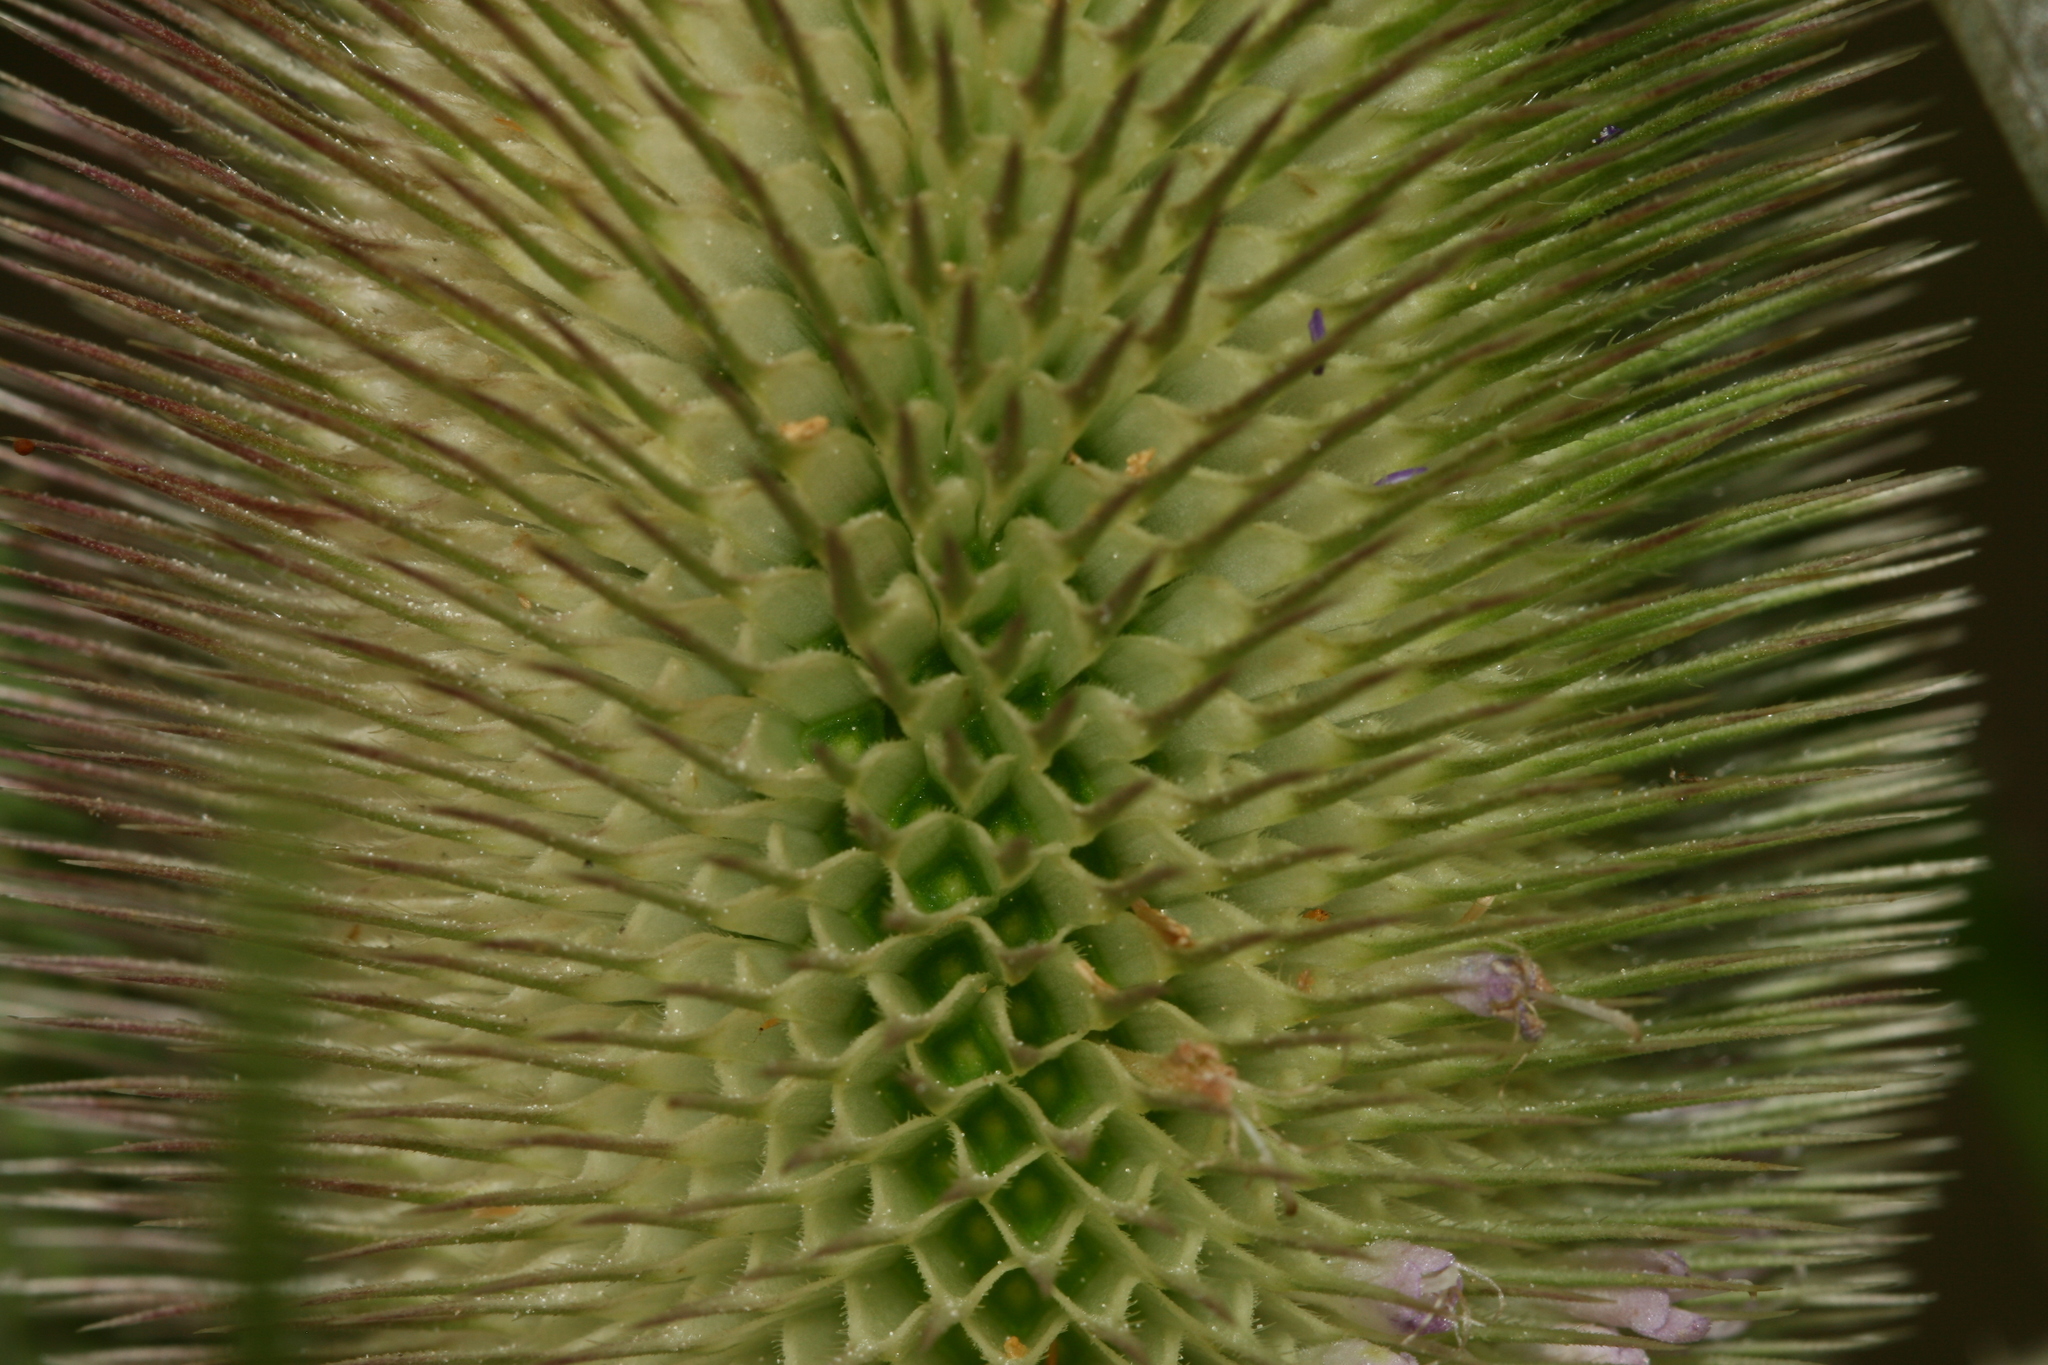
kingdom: Plantae
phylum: Tracheophyta
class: Magnoliopsida
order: Dipsacales
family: Caprifoliaceae
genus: Dipsacus
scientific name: Dipsacus fullonum
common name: Teasel
